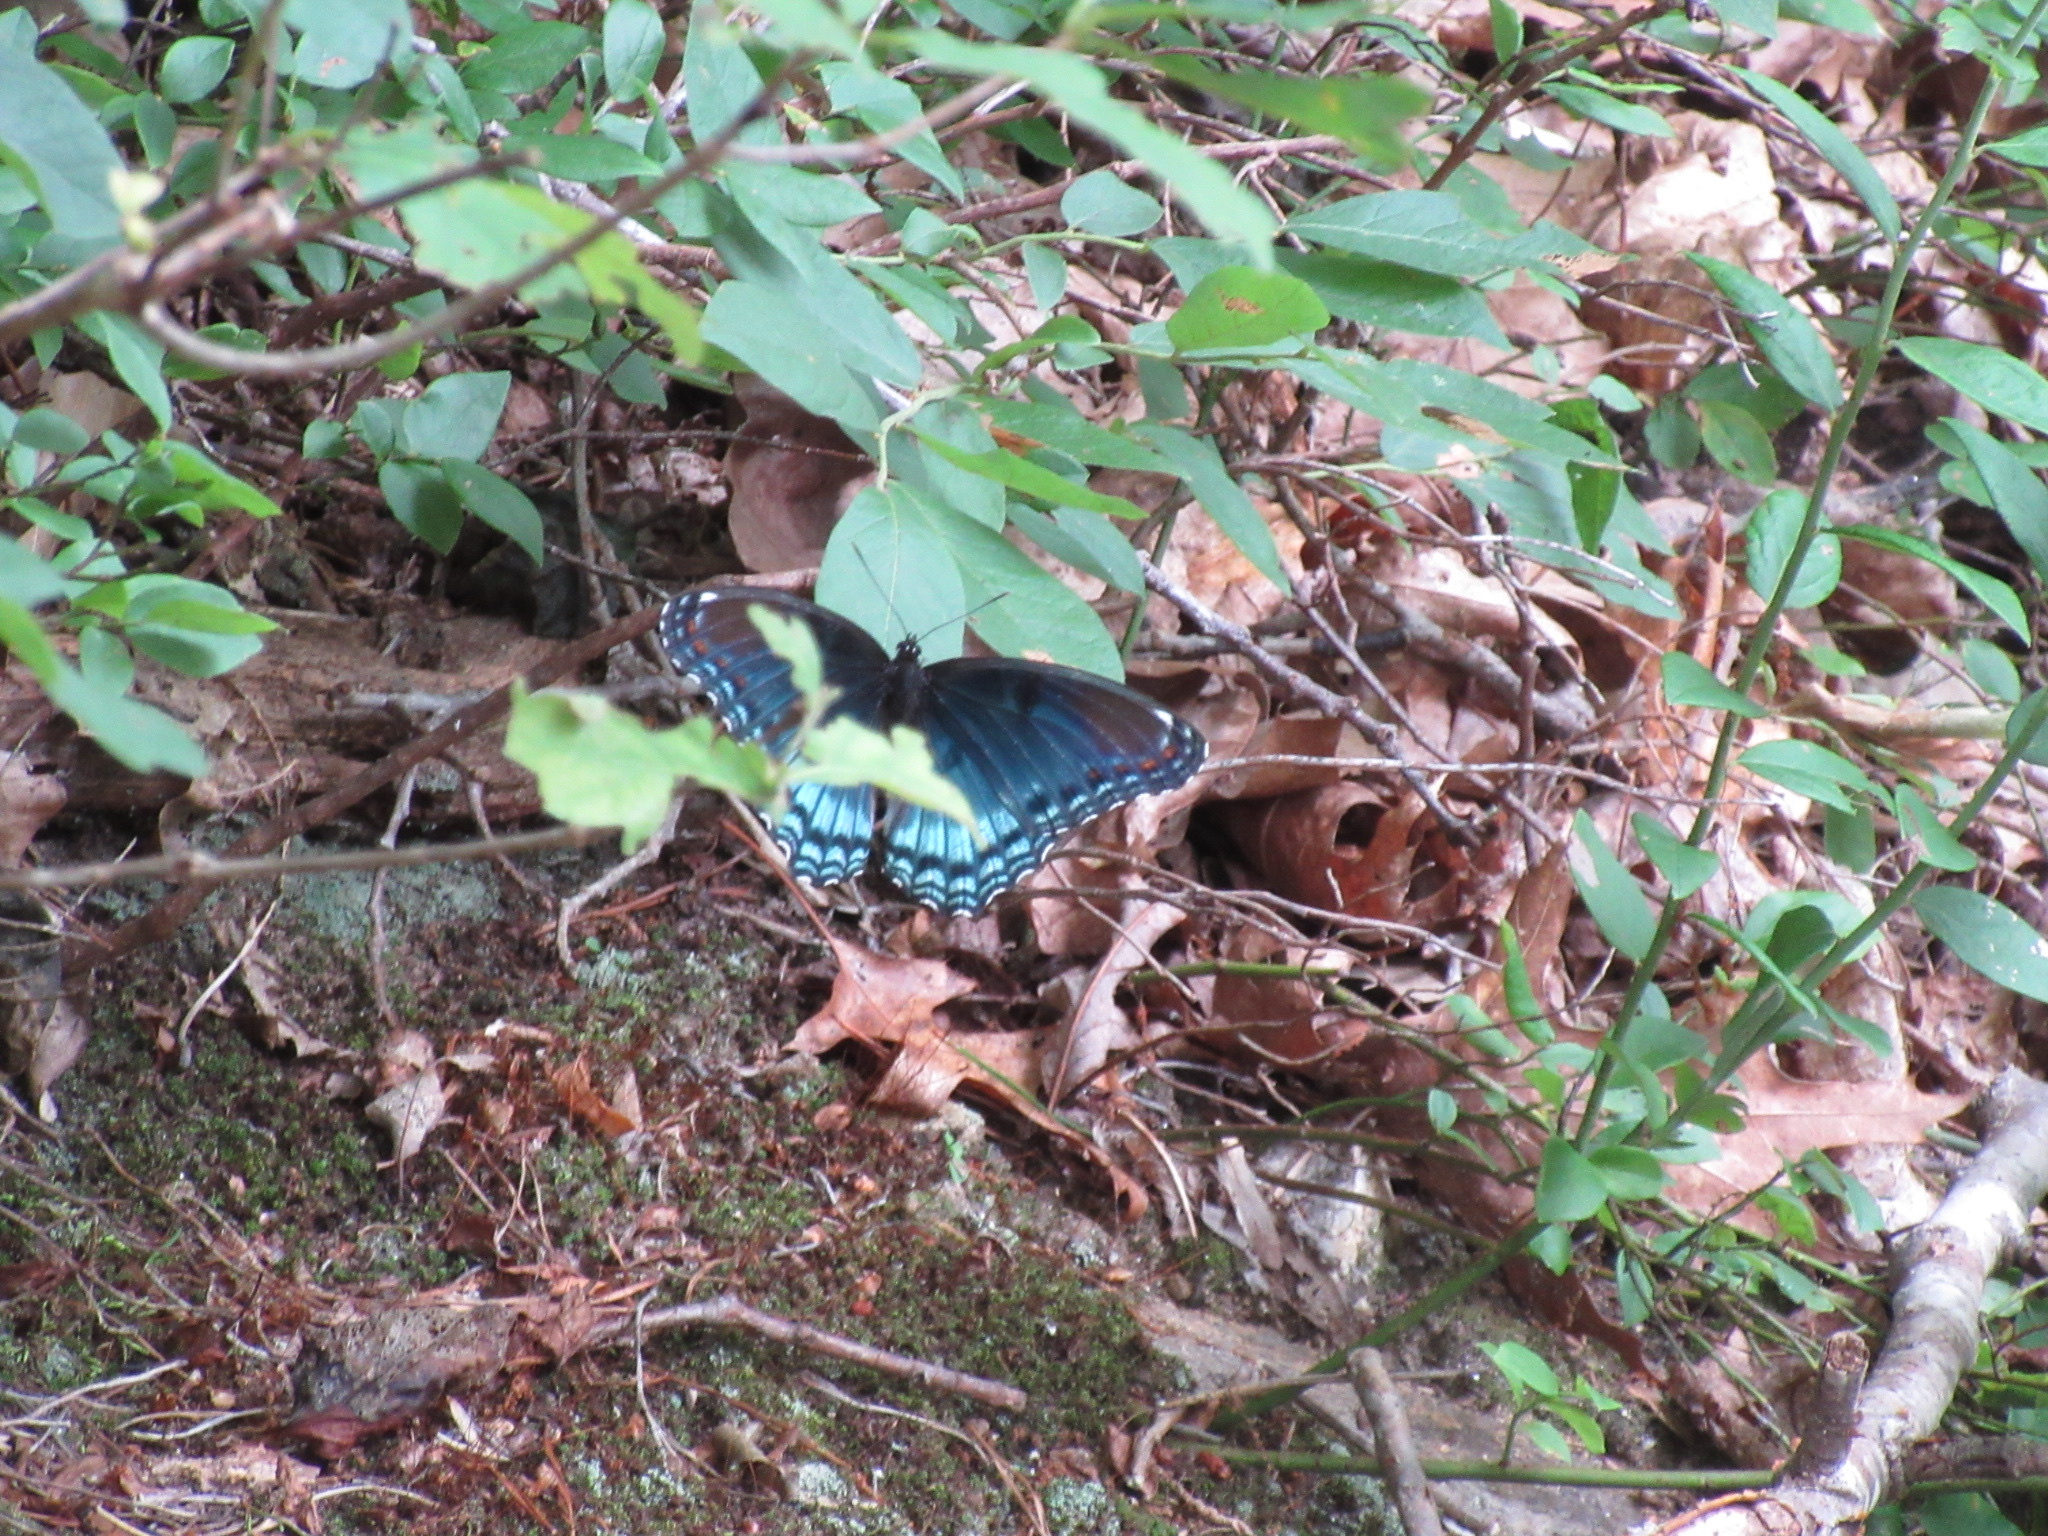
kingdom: Animalia
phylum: Arthropoda
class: Insecta
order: Lepidoptera
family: Nymphalidae
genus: Limenitis
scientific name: Limenitis astyanax
